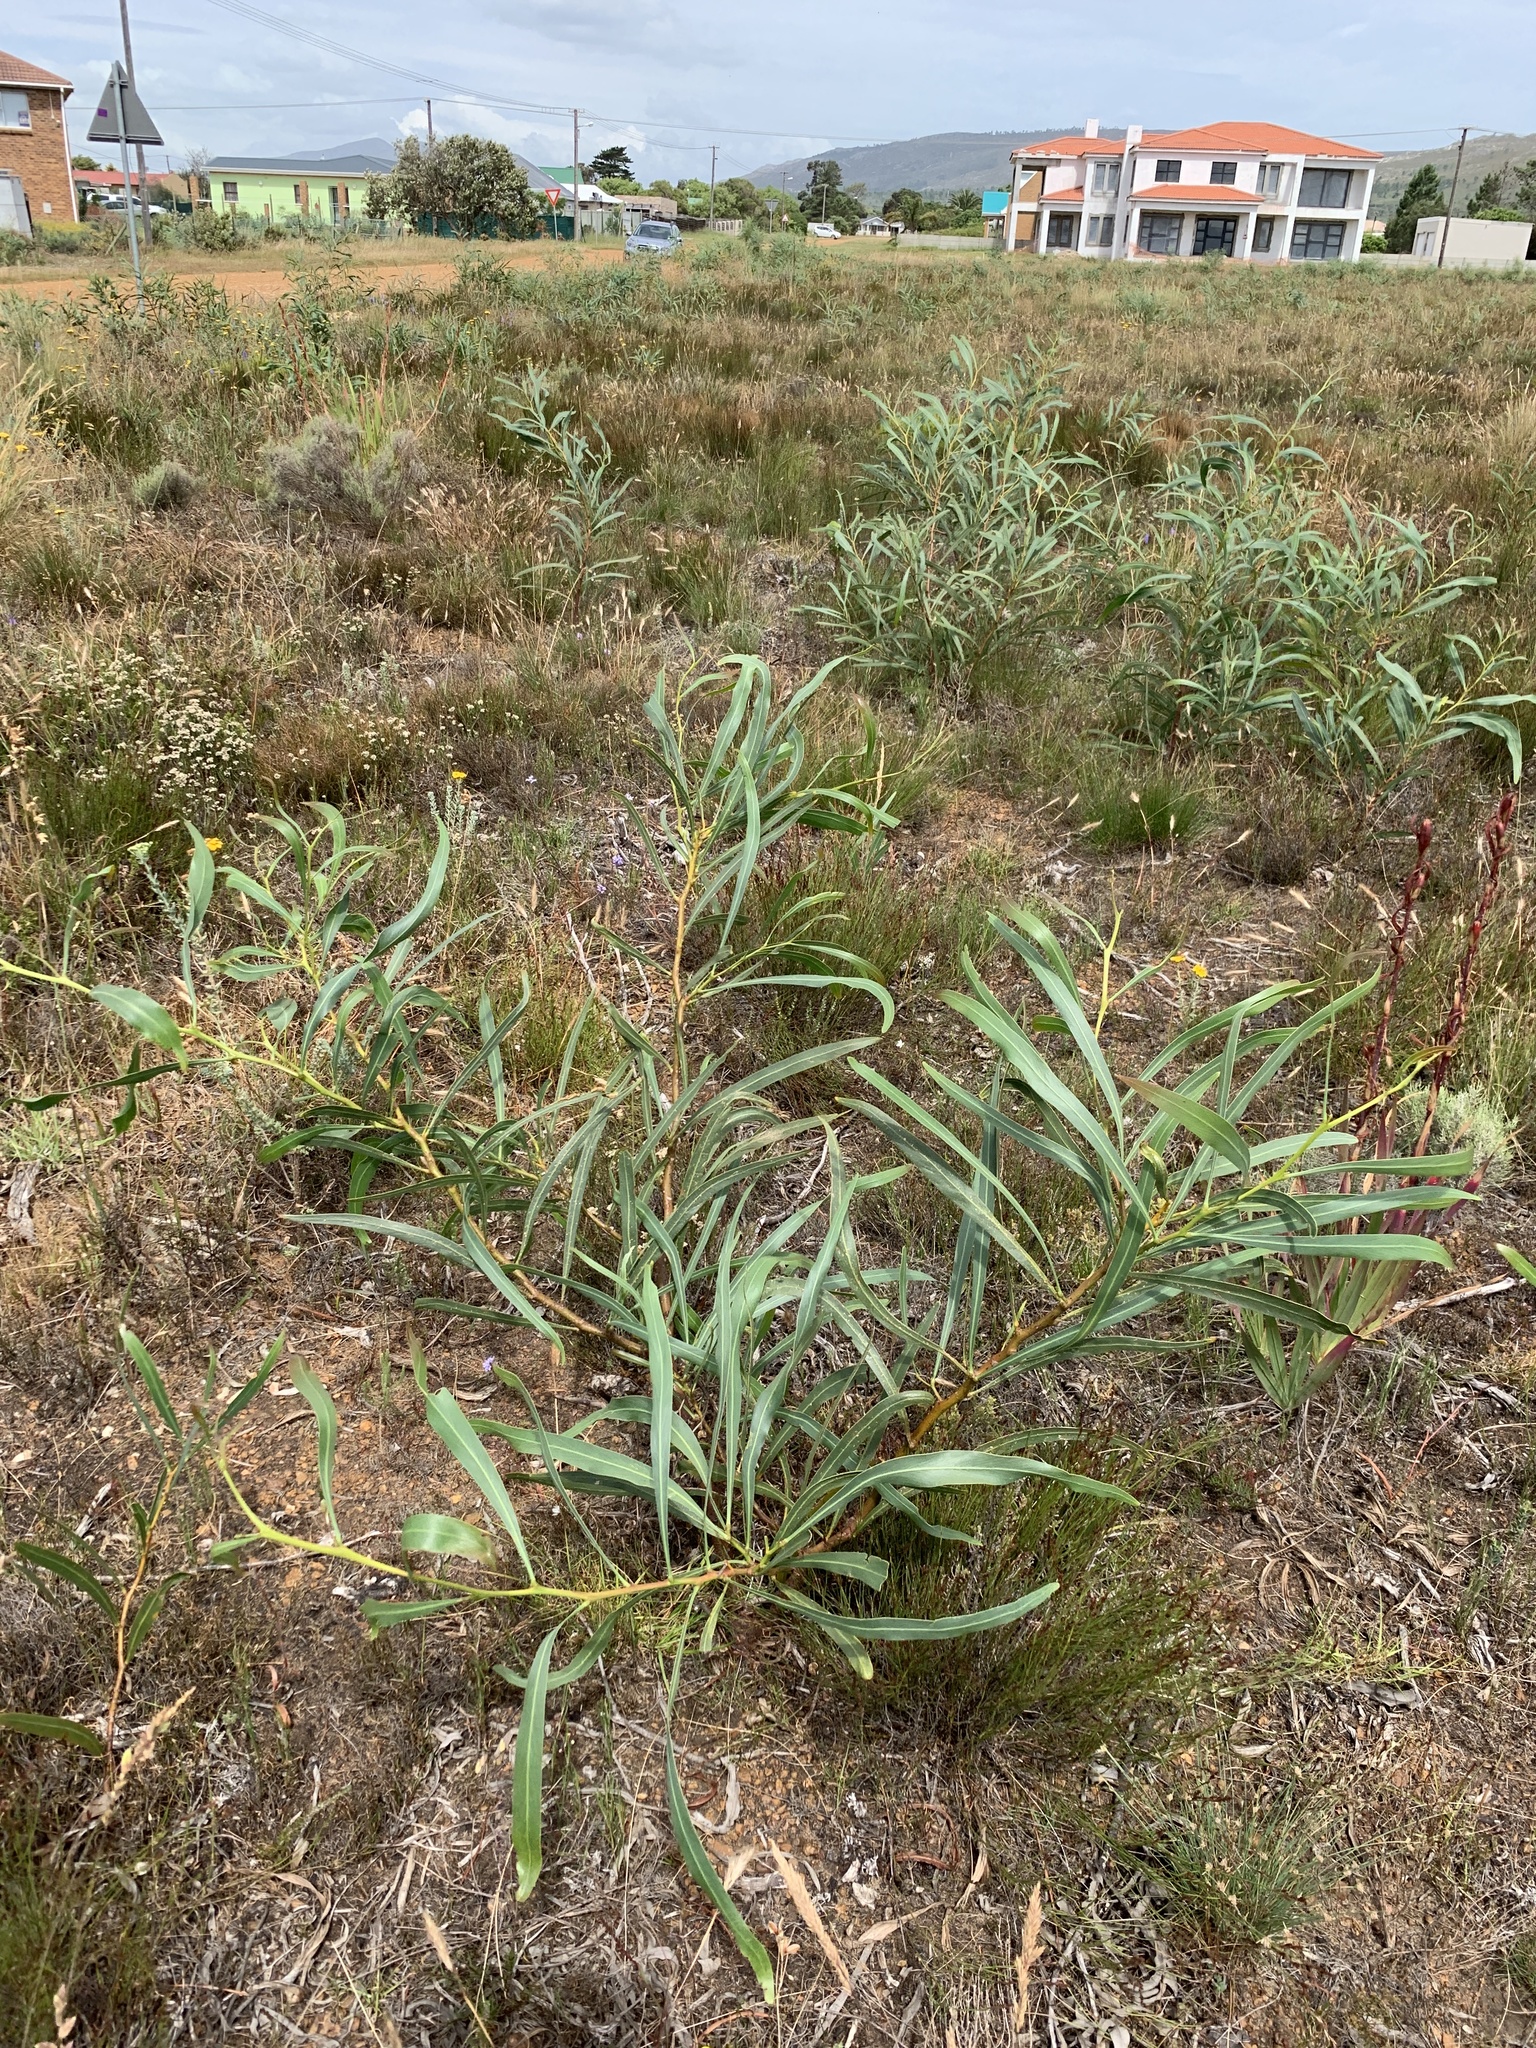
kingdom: Plantae
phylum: Tracheophyta
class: Magnoliopsida
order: Fabales
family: Fabaceae
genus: Acacia
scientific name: Acacia saligna
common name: Orange wattle
